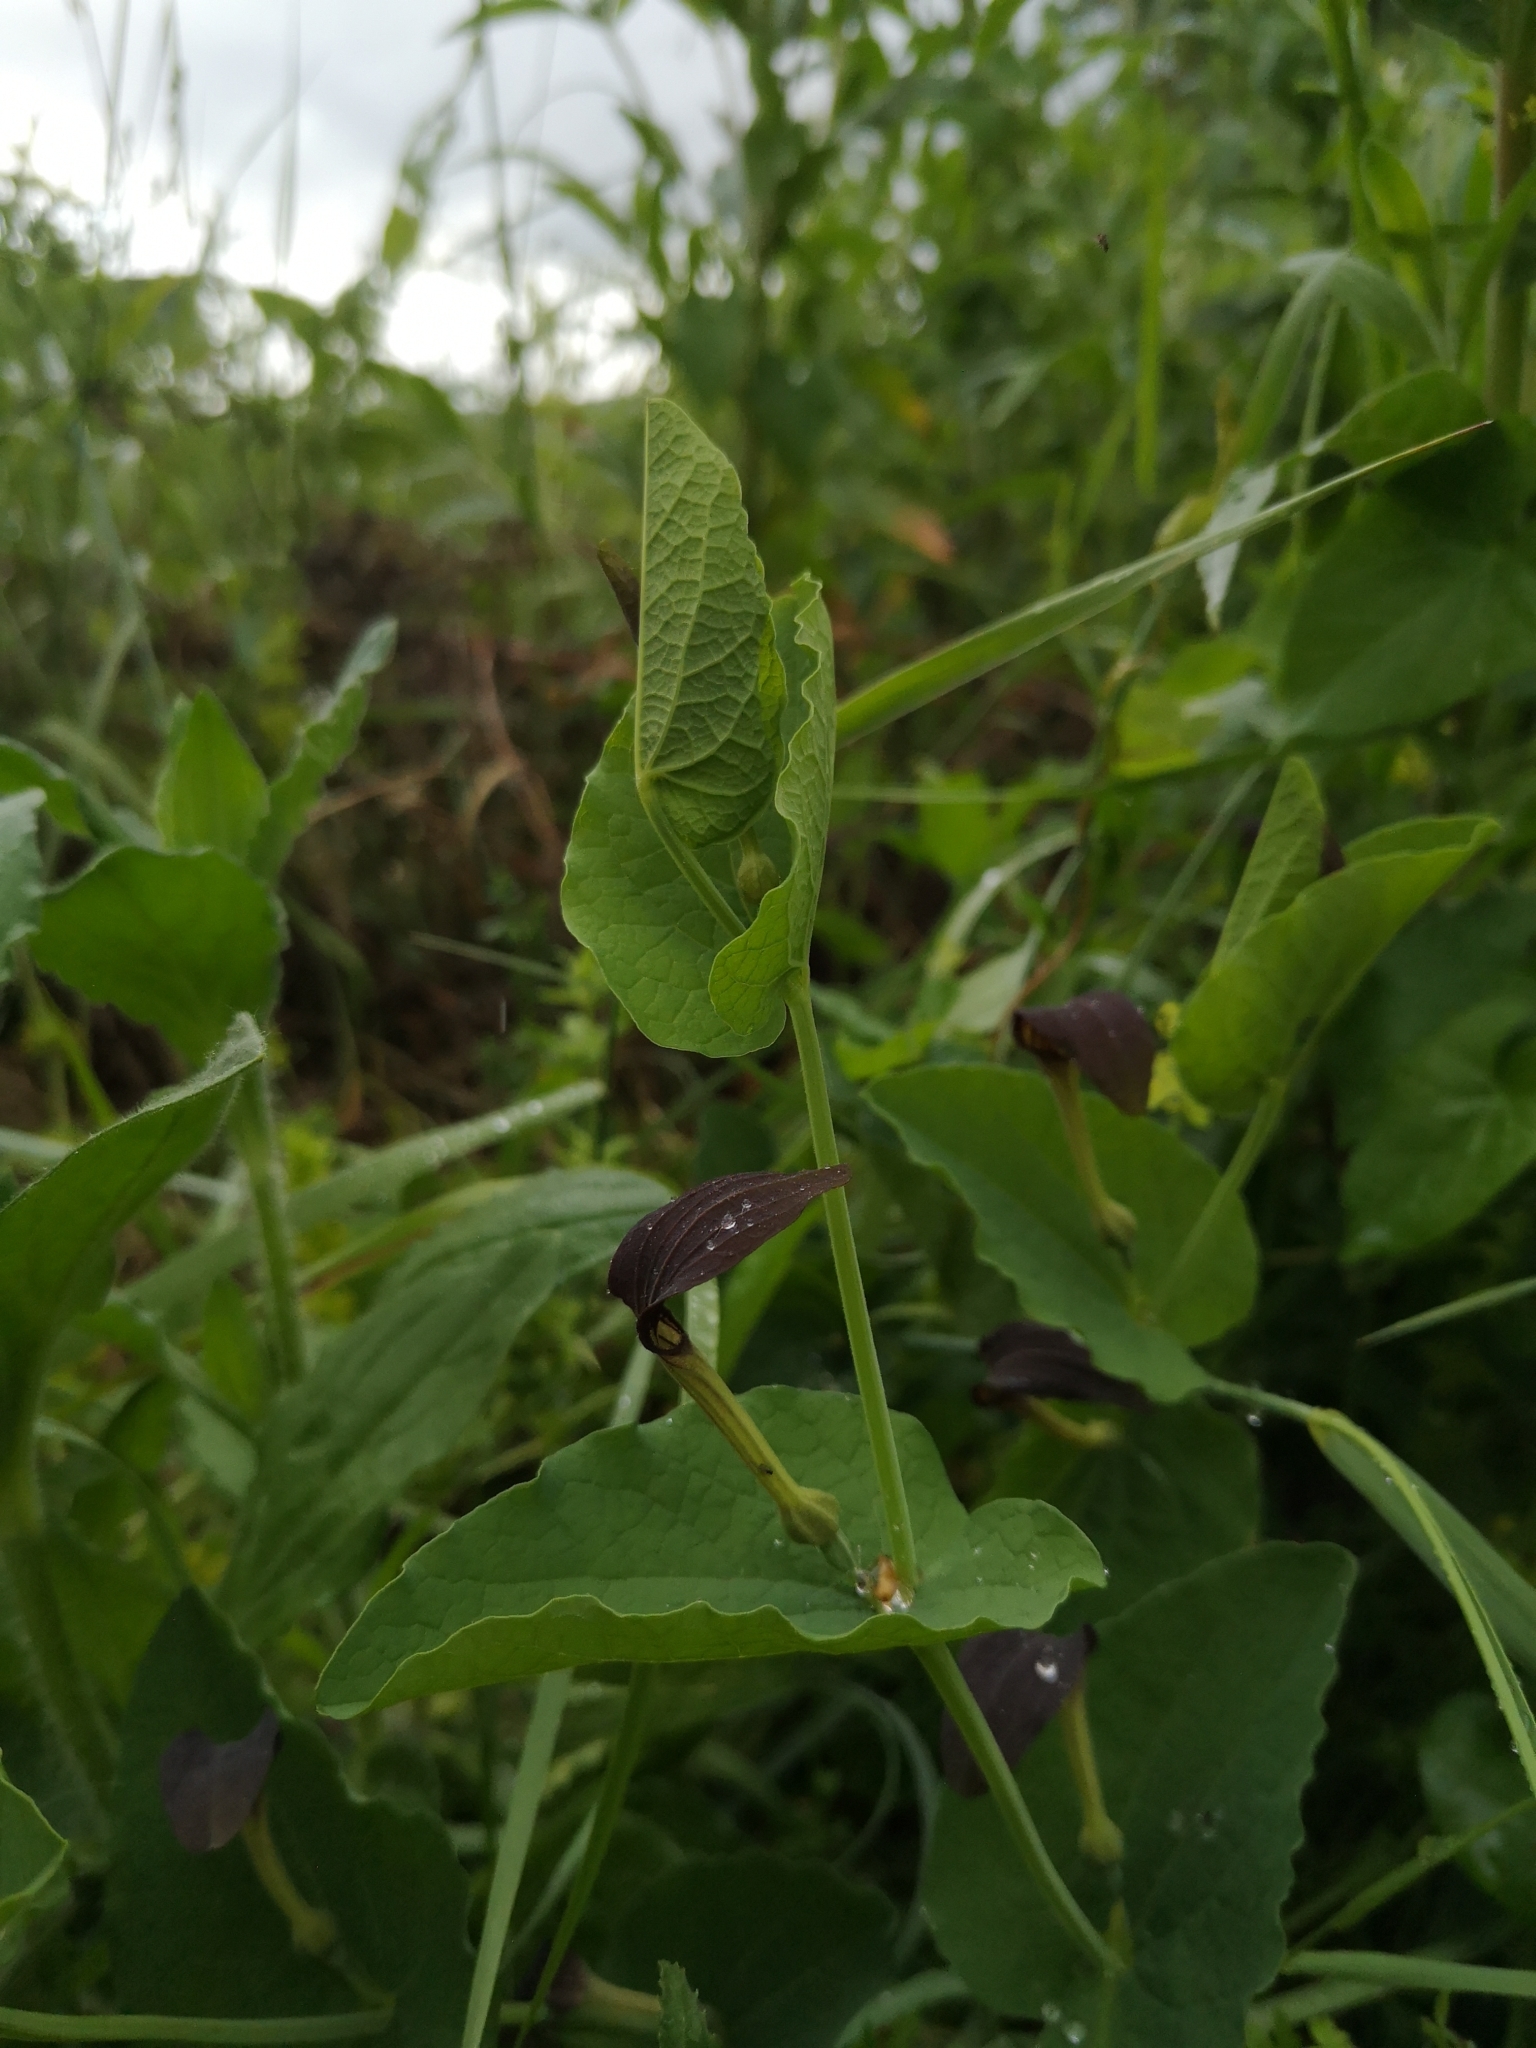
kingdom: Plantae
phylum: Tracheophyta
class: Magnoliopsida
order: Piperales
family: Aristolochiaceae
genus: Aristolochia
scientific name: Aristolochia rotunda
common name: Smearwort
